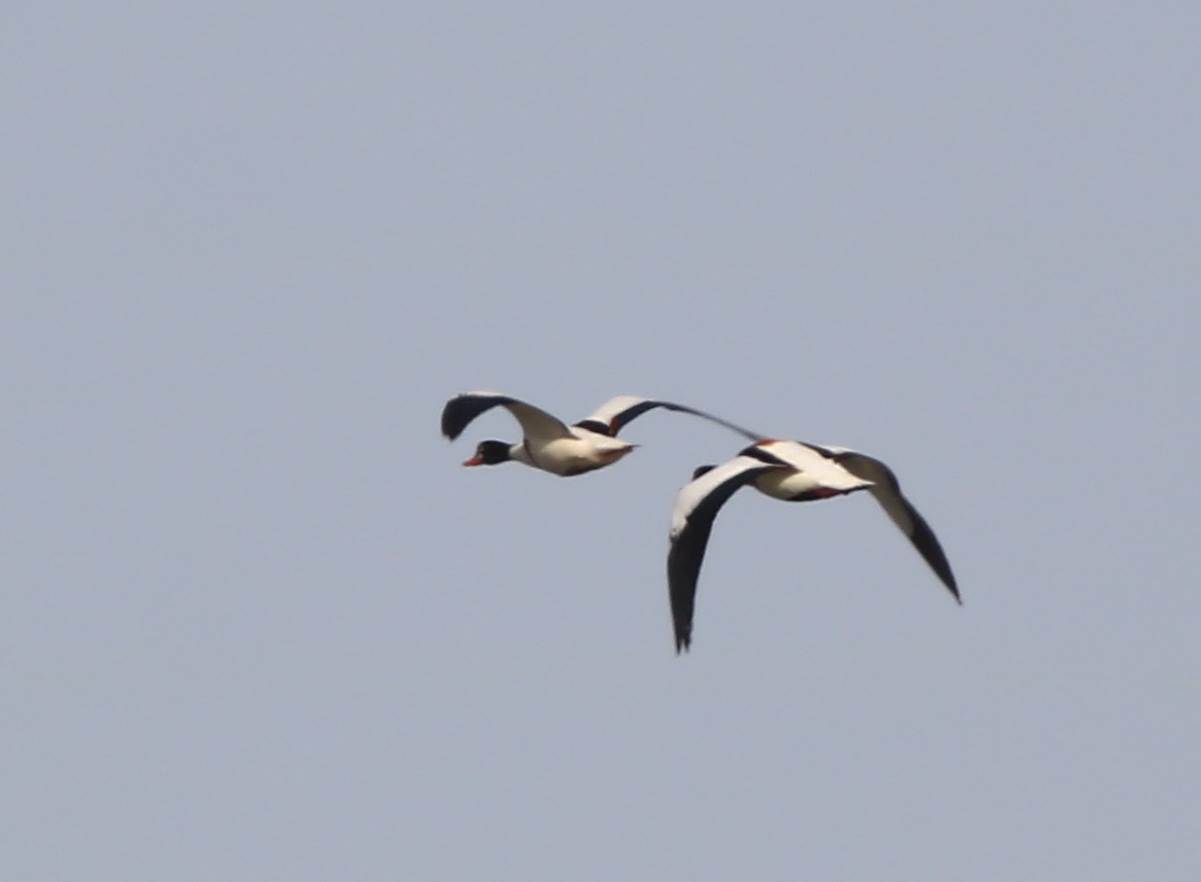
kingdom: Animalia
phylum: Chordata
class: Aves
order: Anseriformes
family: Anatidae
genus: Tadorna
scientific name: Tadorna tadorna
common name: Common shelduck
